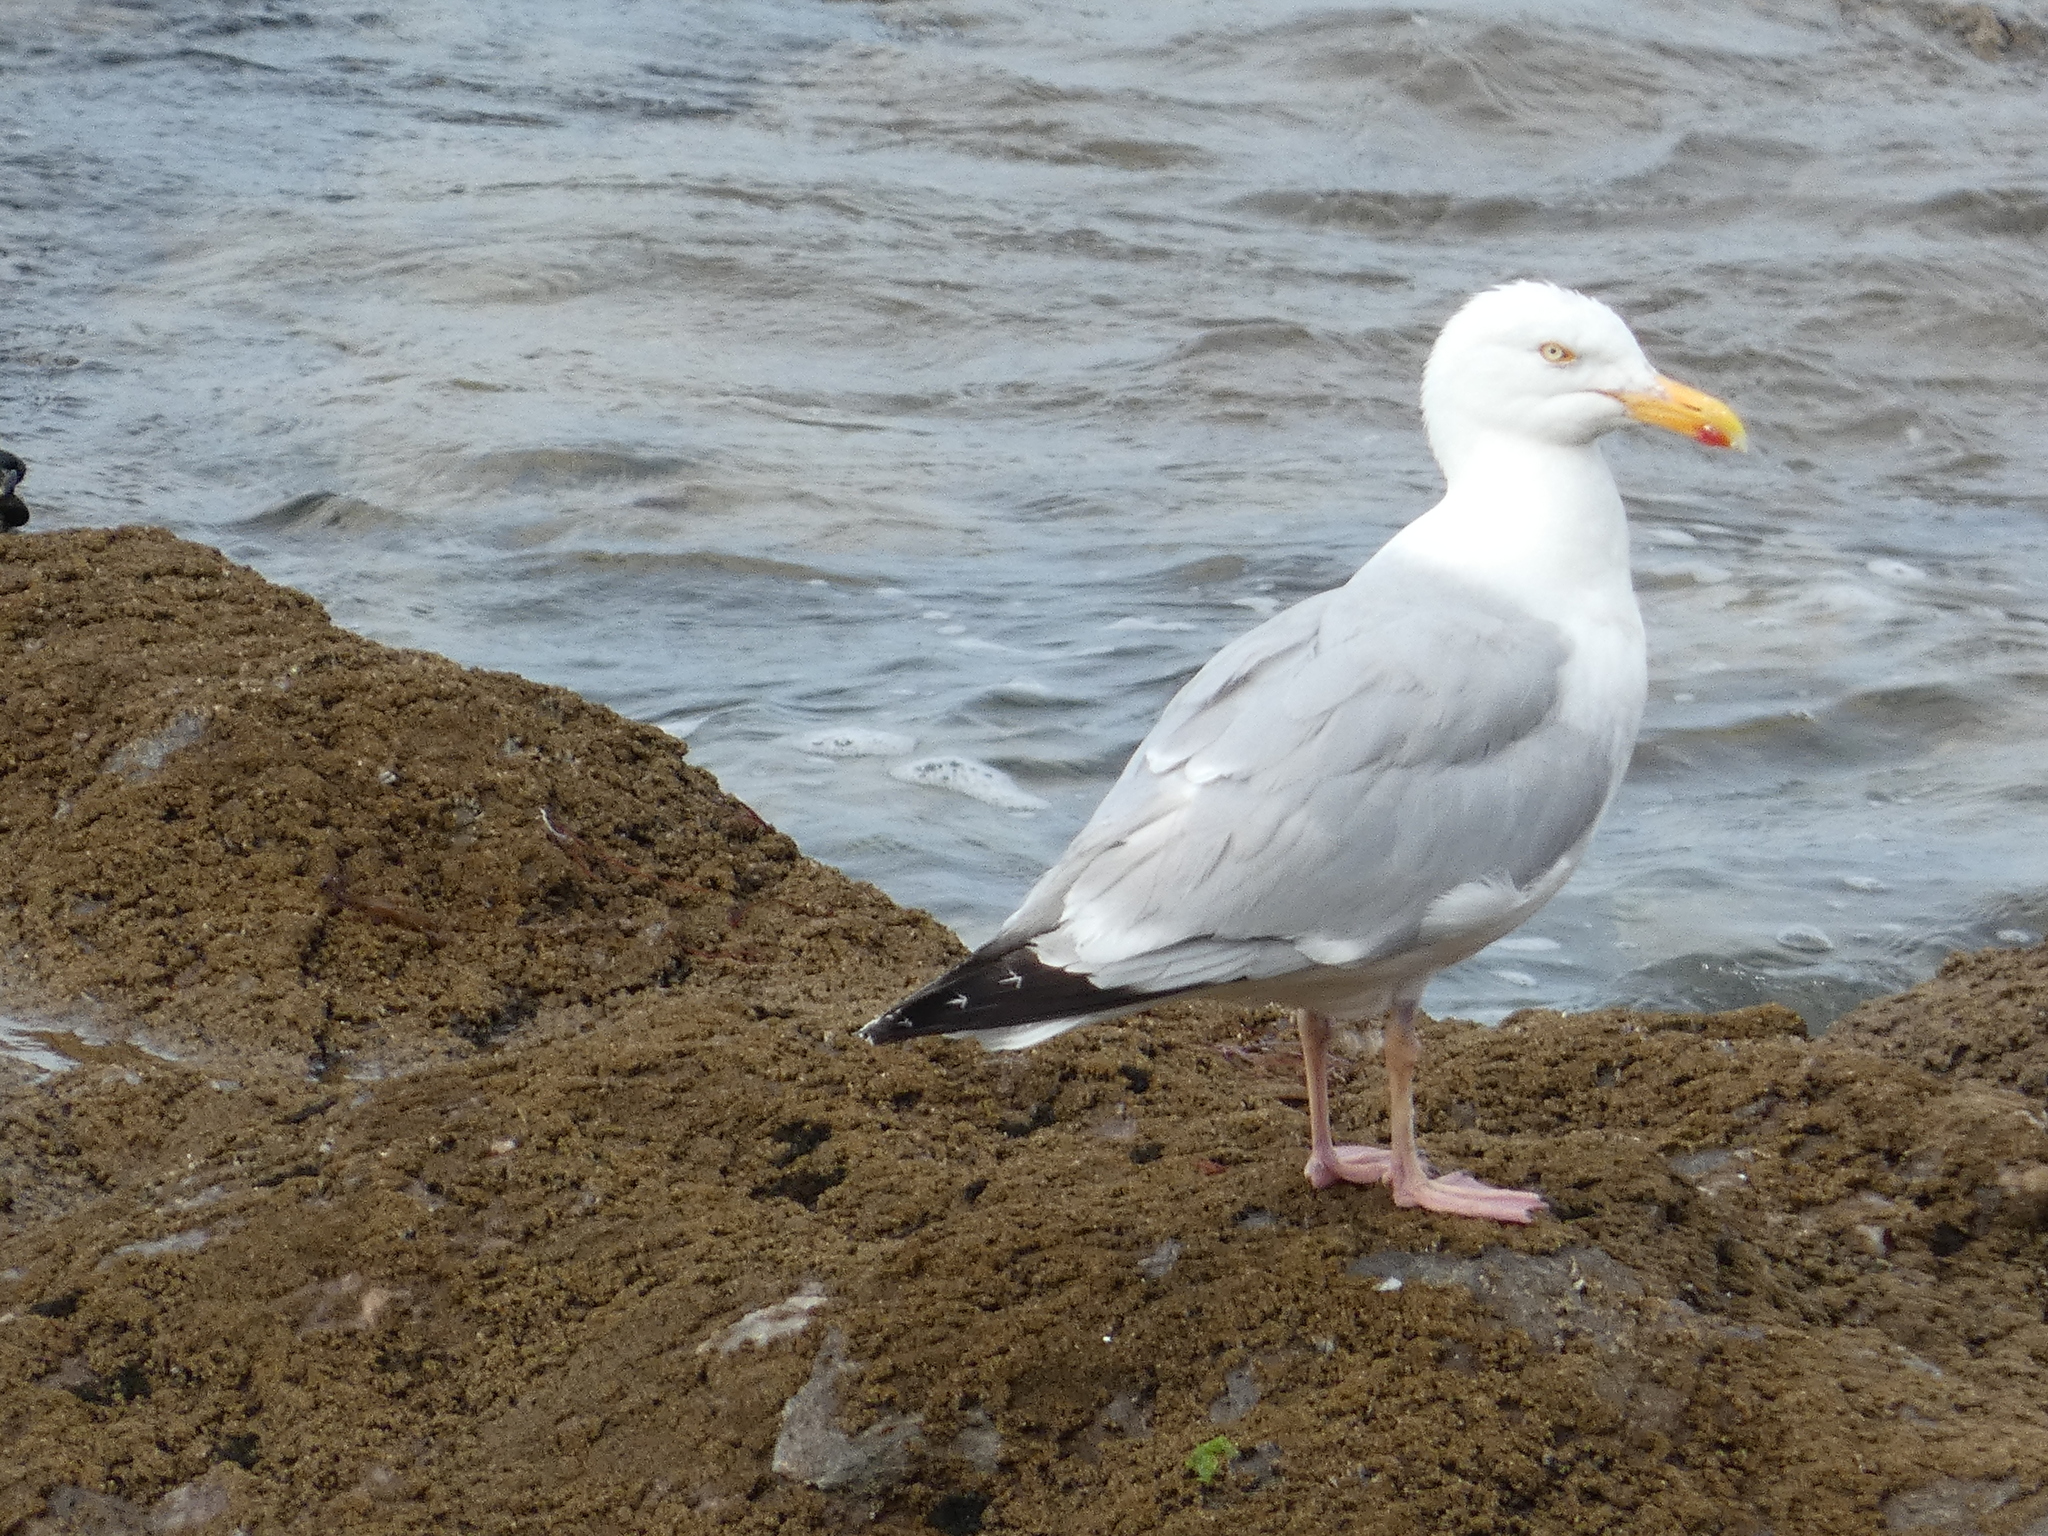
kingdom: Animalia
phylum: Chordata
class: Aves
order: Charadriiformes
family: Laridae
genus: Larus
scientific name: Larus argentatus
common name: Herring gull
